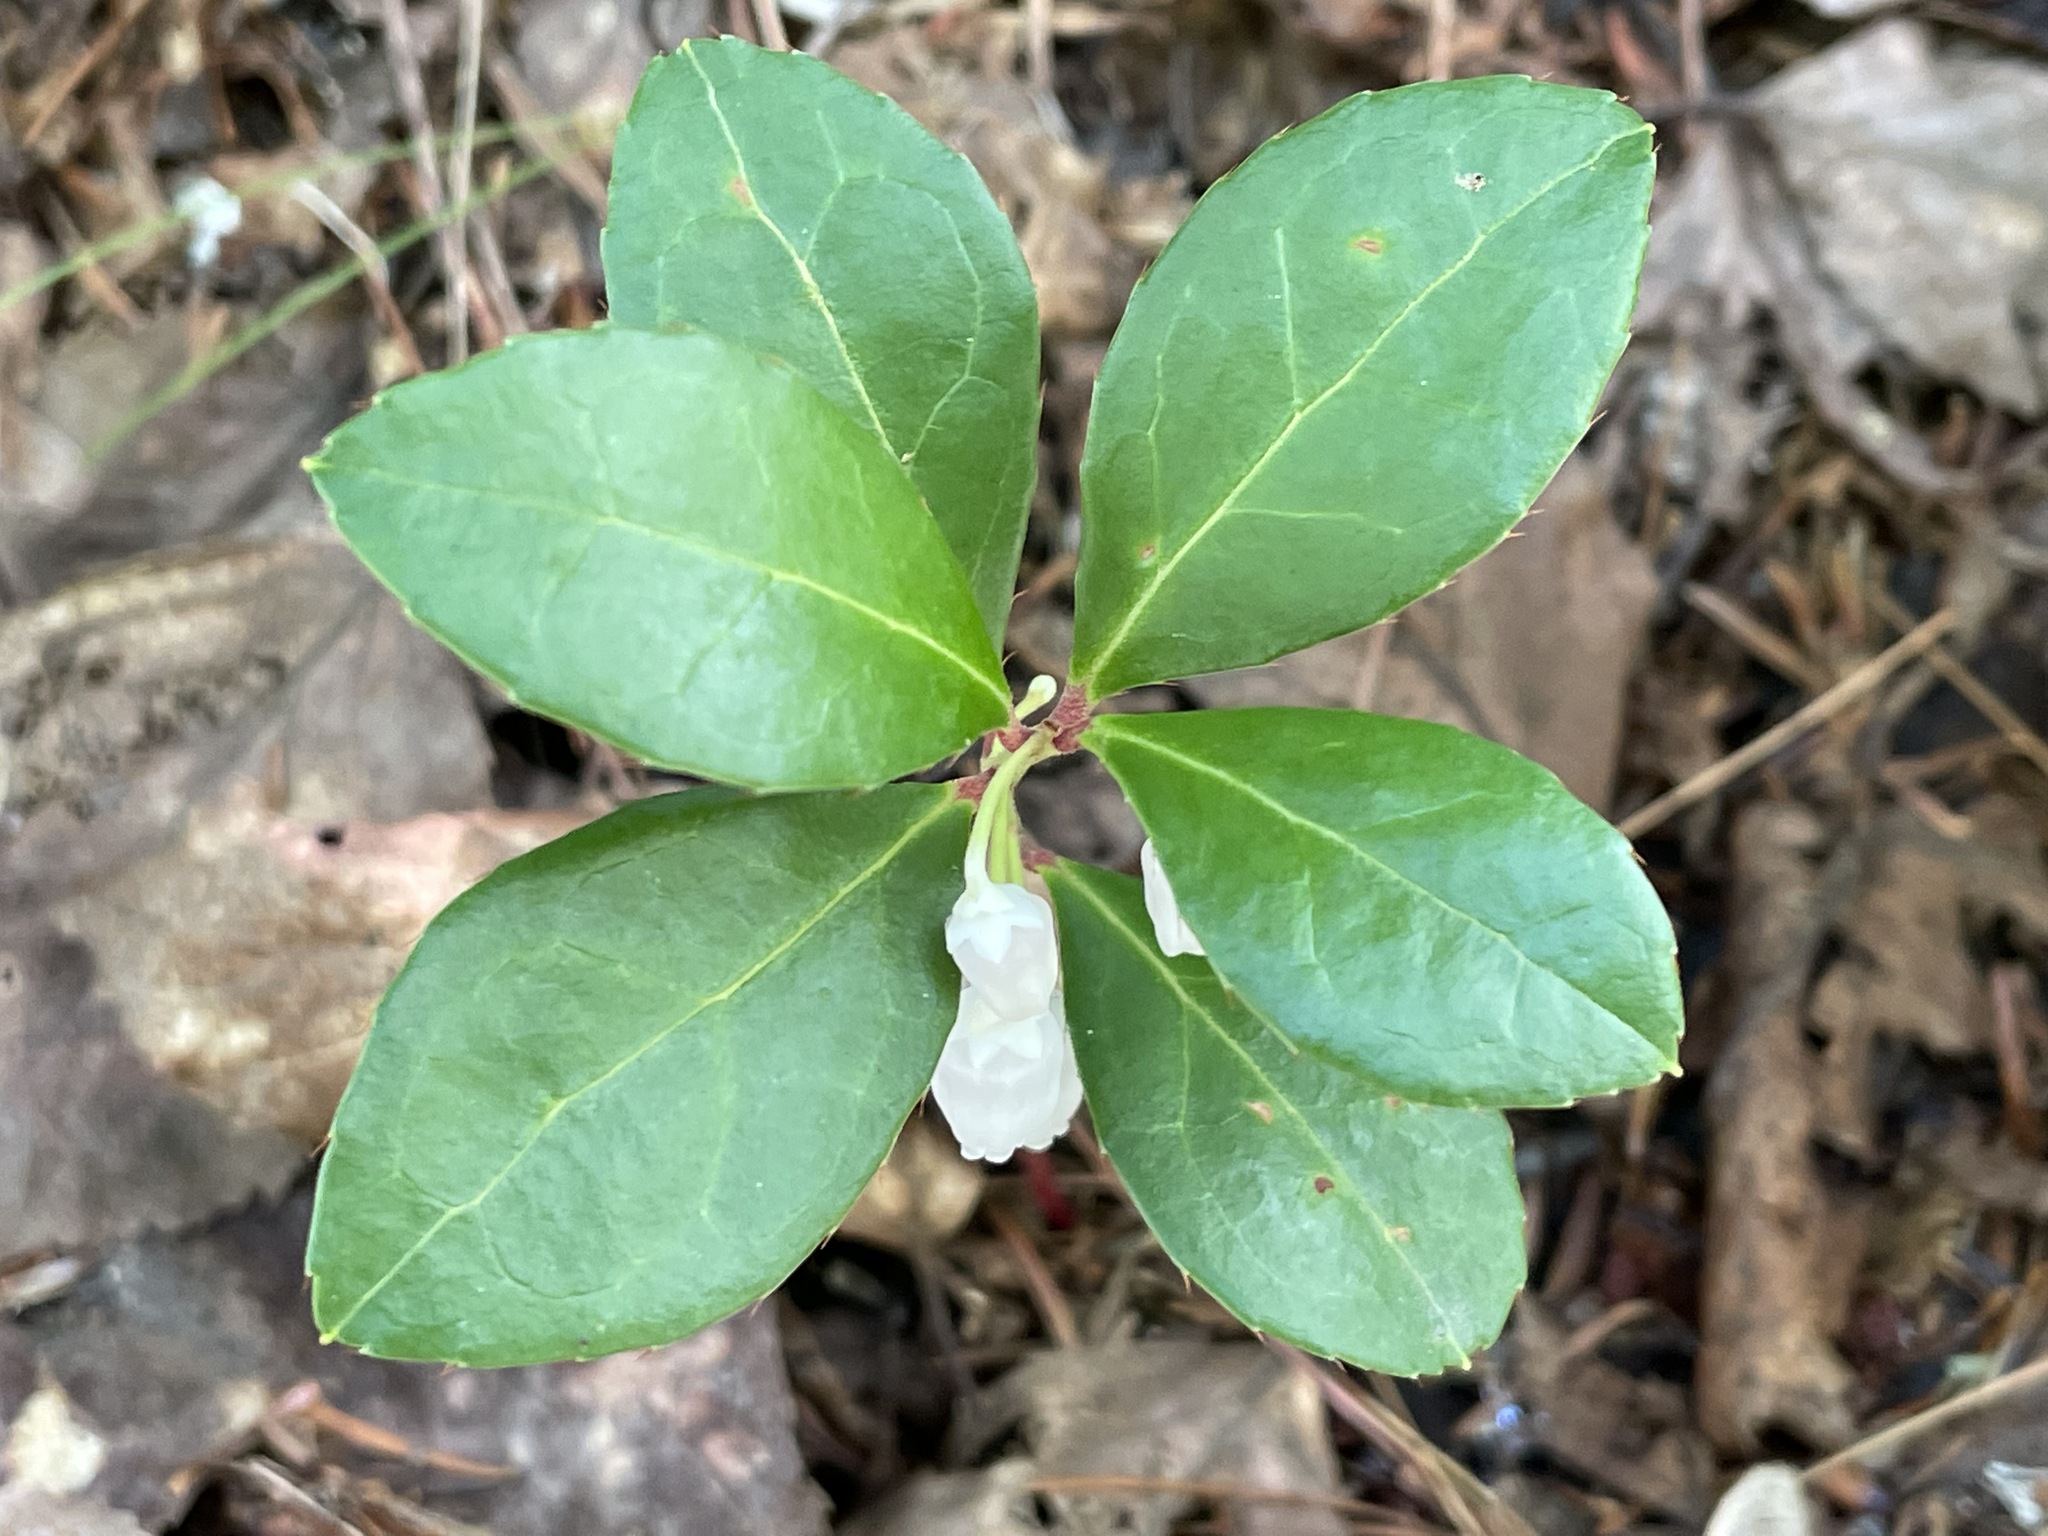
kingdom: Plantae
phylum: Tracheophyta
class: Magnoliopsida
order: Ericales
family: Ericaceae
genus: Gaultheria
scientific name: Gaultheria procumbens
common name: Checkerberry
